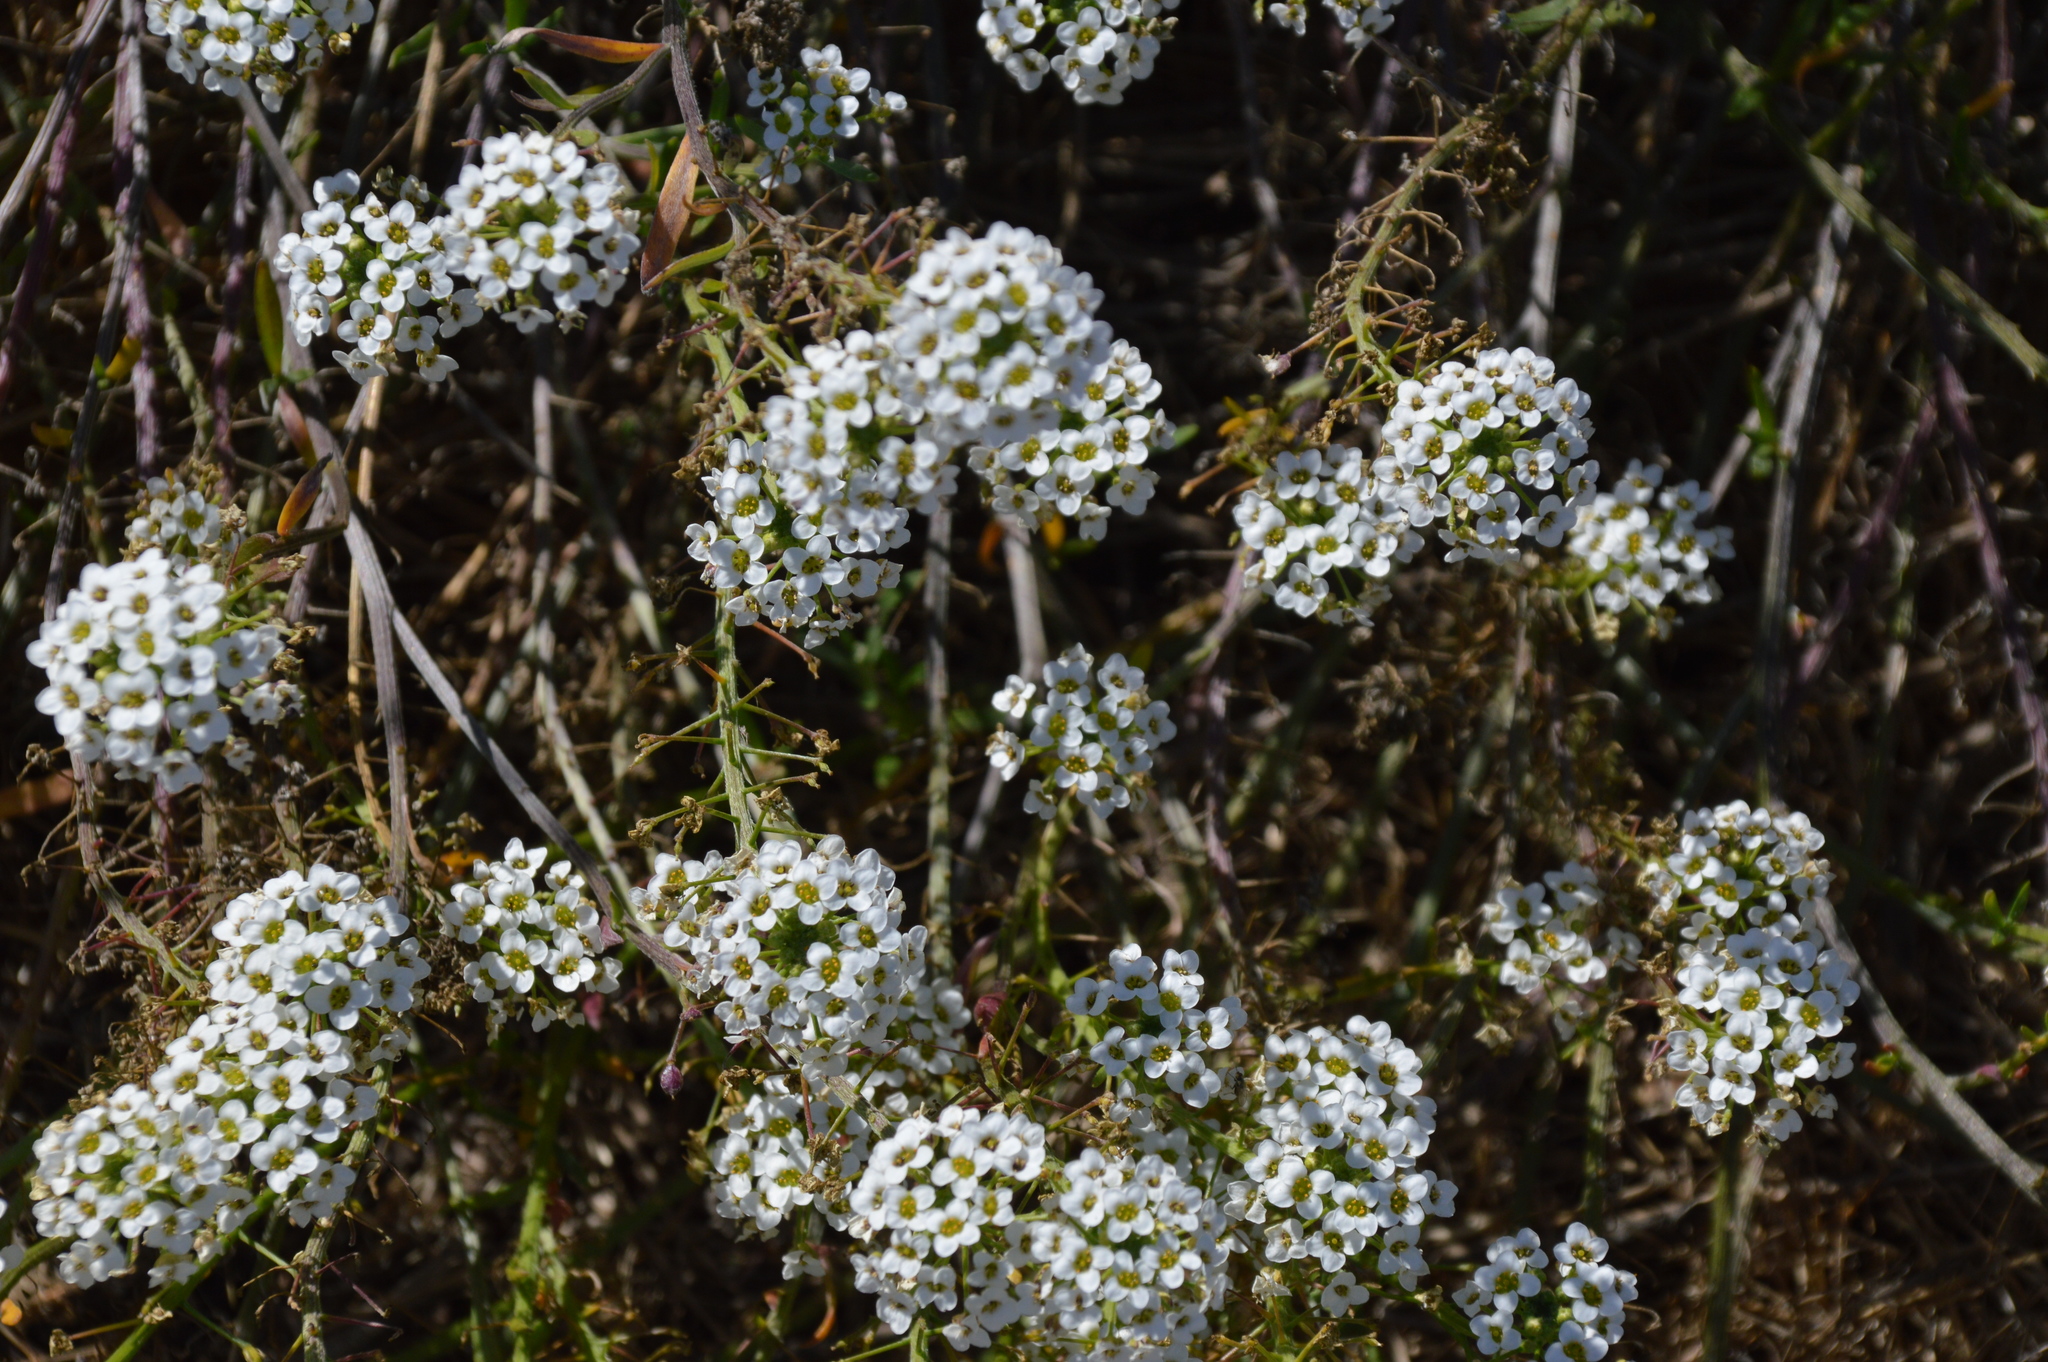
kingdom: Plantae
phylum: Tracheophyta
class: Magnoliopsida
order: Brassicales
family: Brassicaceae
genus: Lobularia
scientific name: Lobularia maritima
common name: Sweet alison
